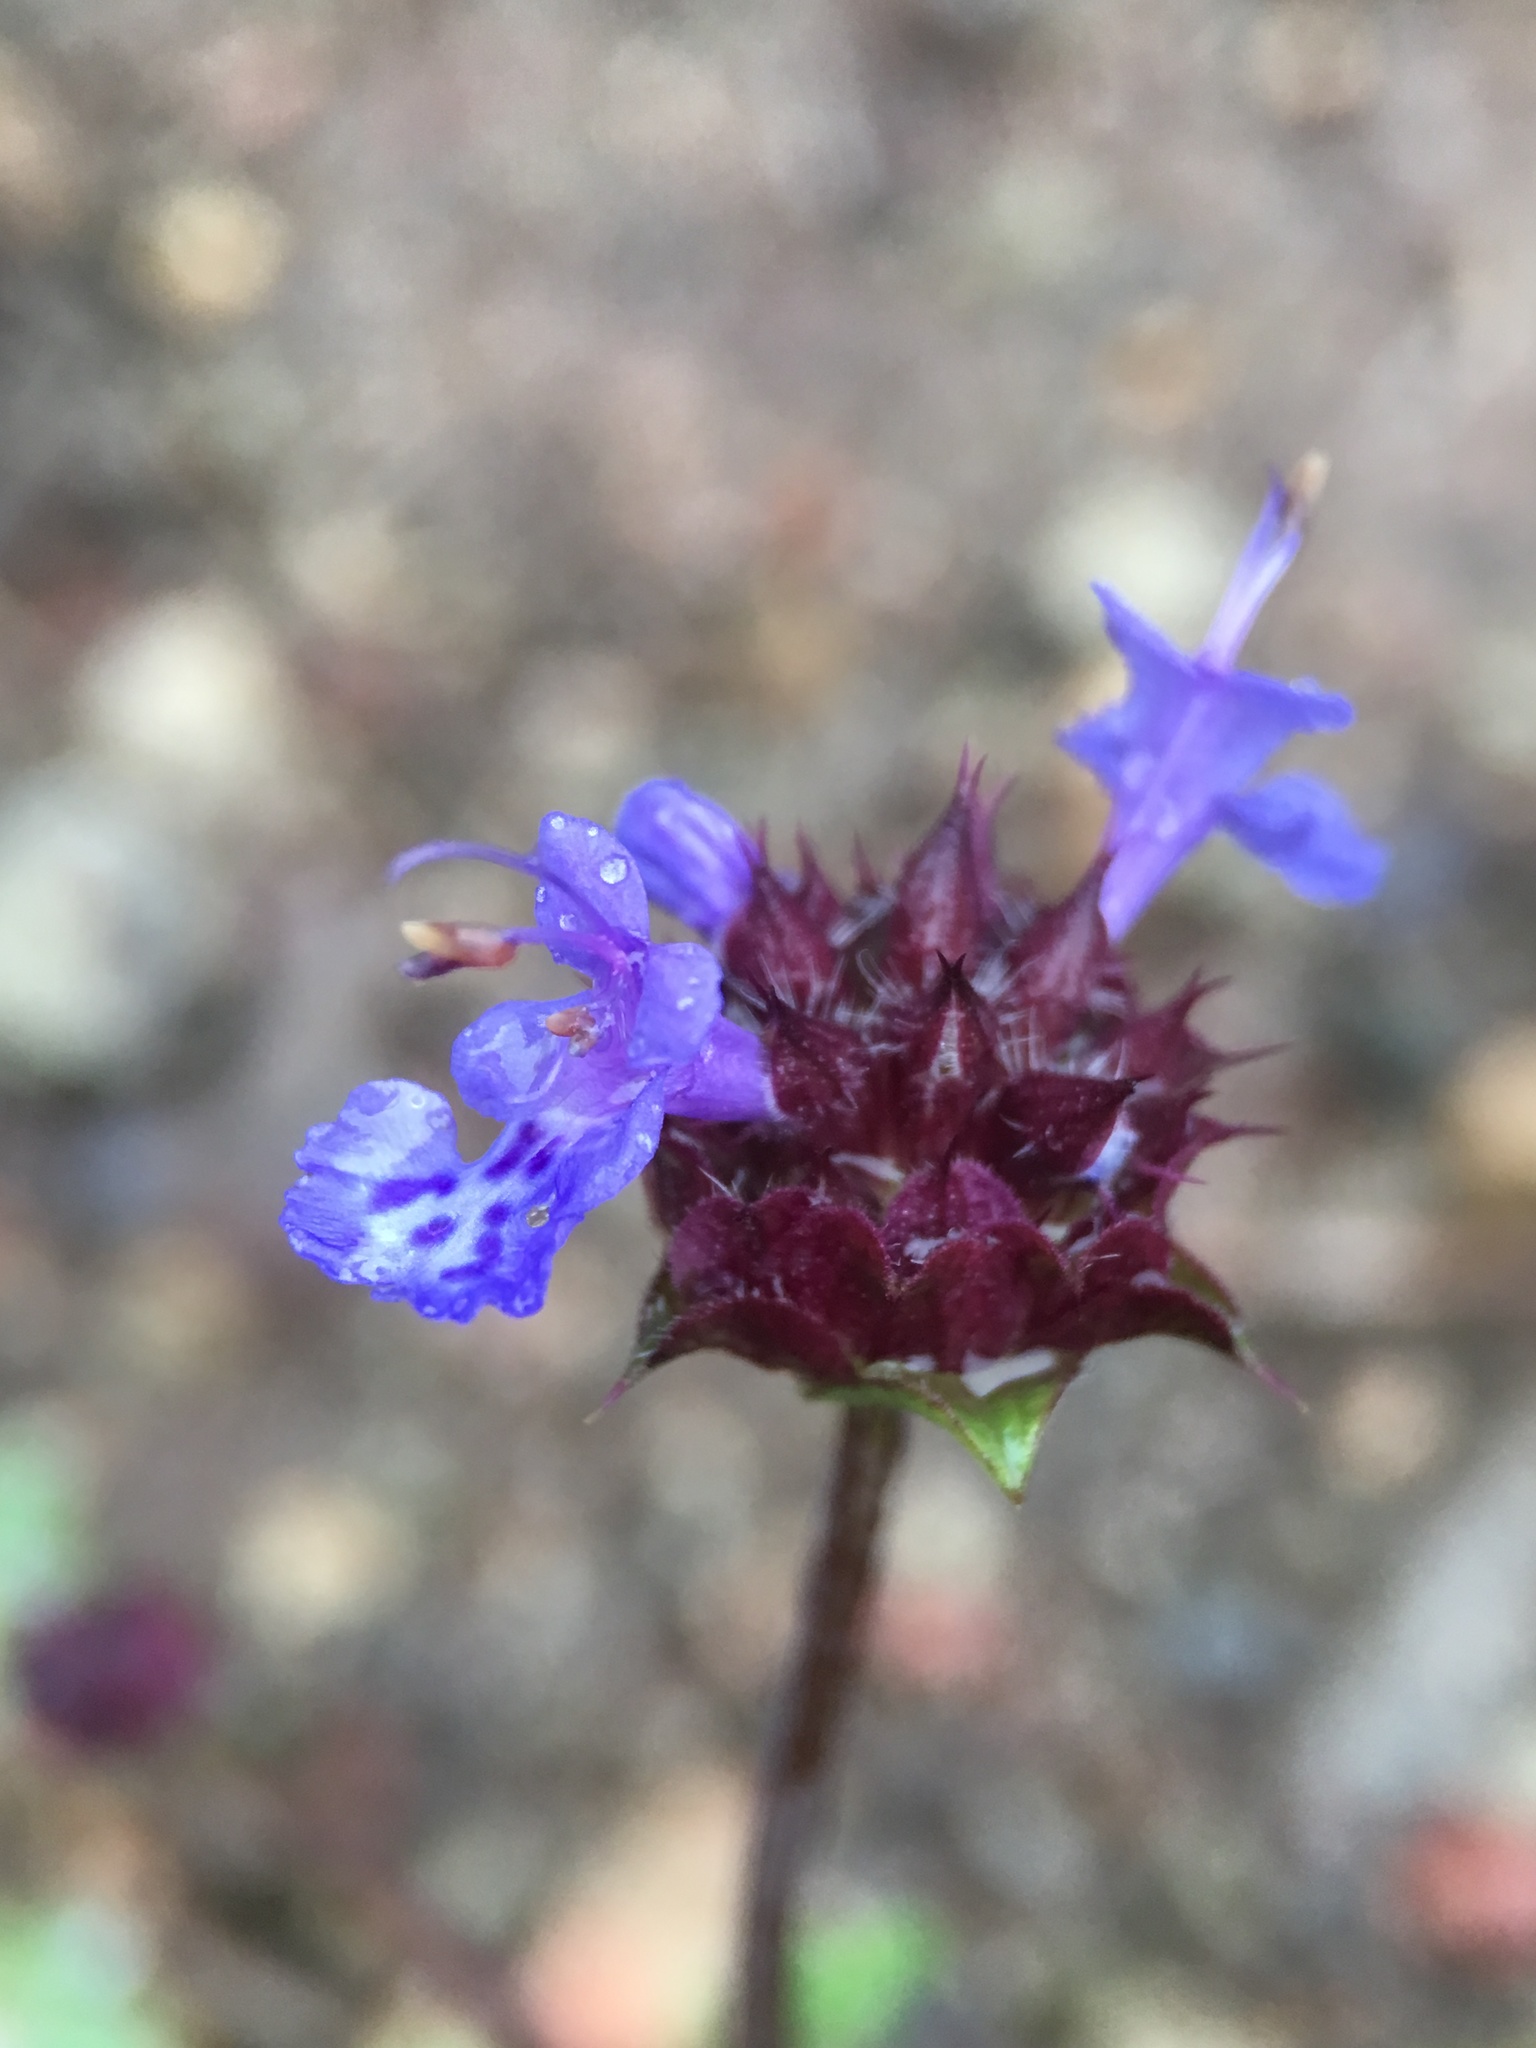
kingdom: Plantae
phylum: Tracheophyta
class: Magnoliopsida
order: Lamiales
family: Lamiaceae
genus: Salvia
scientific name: Salvia columbariae
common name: Chia
